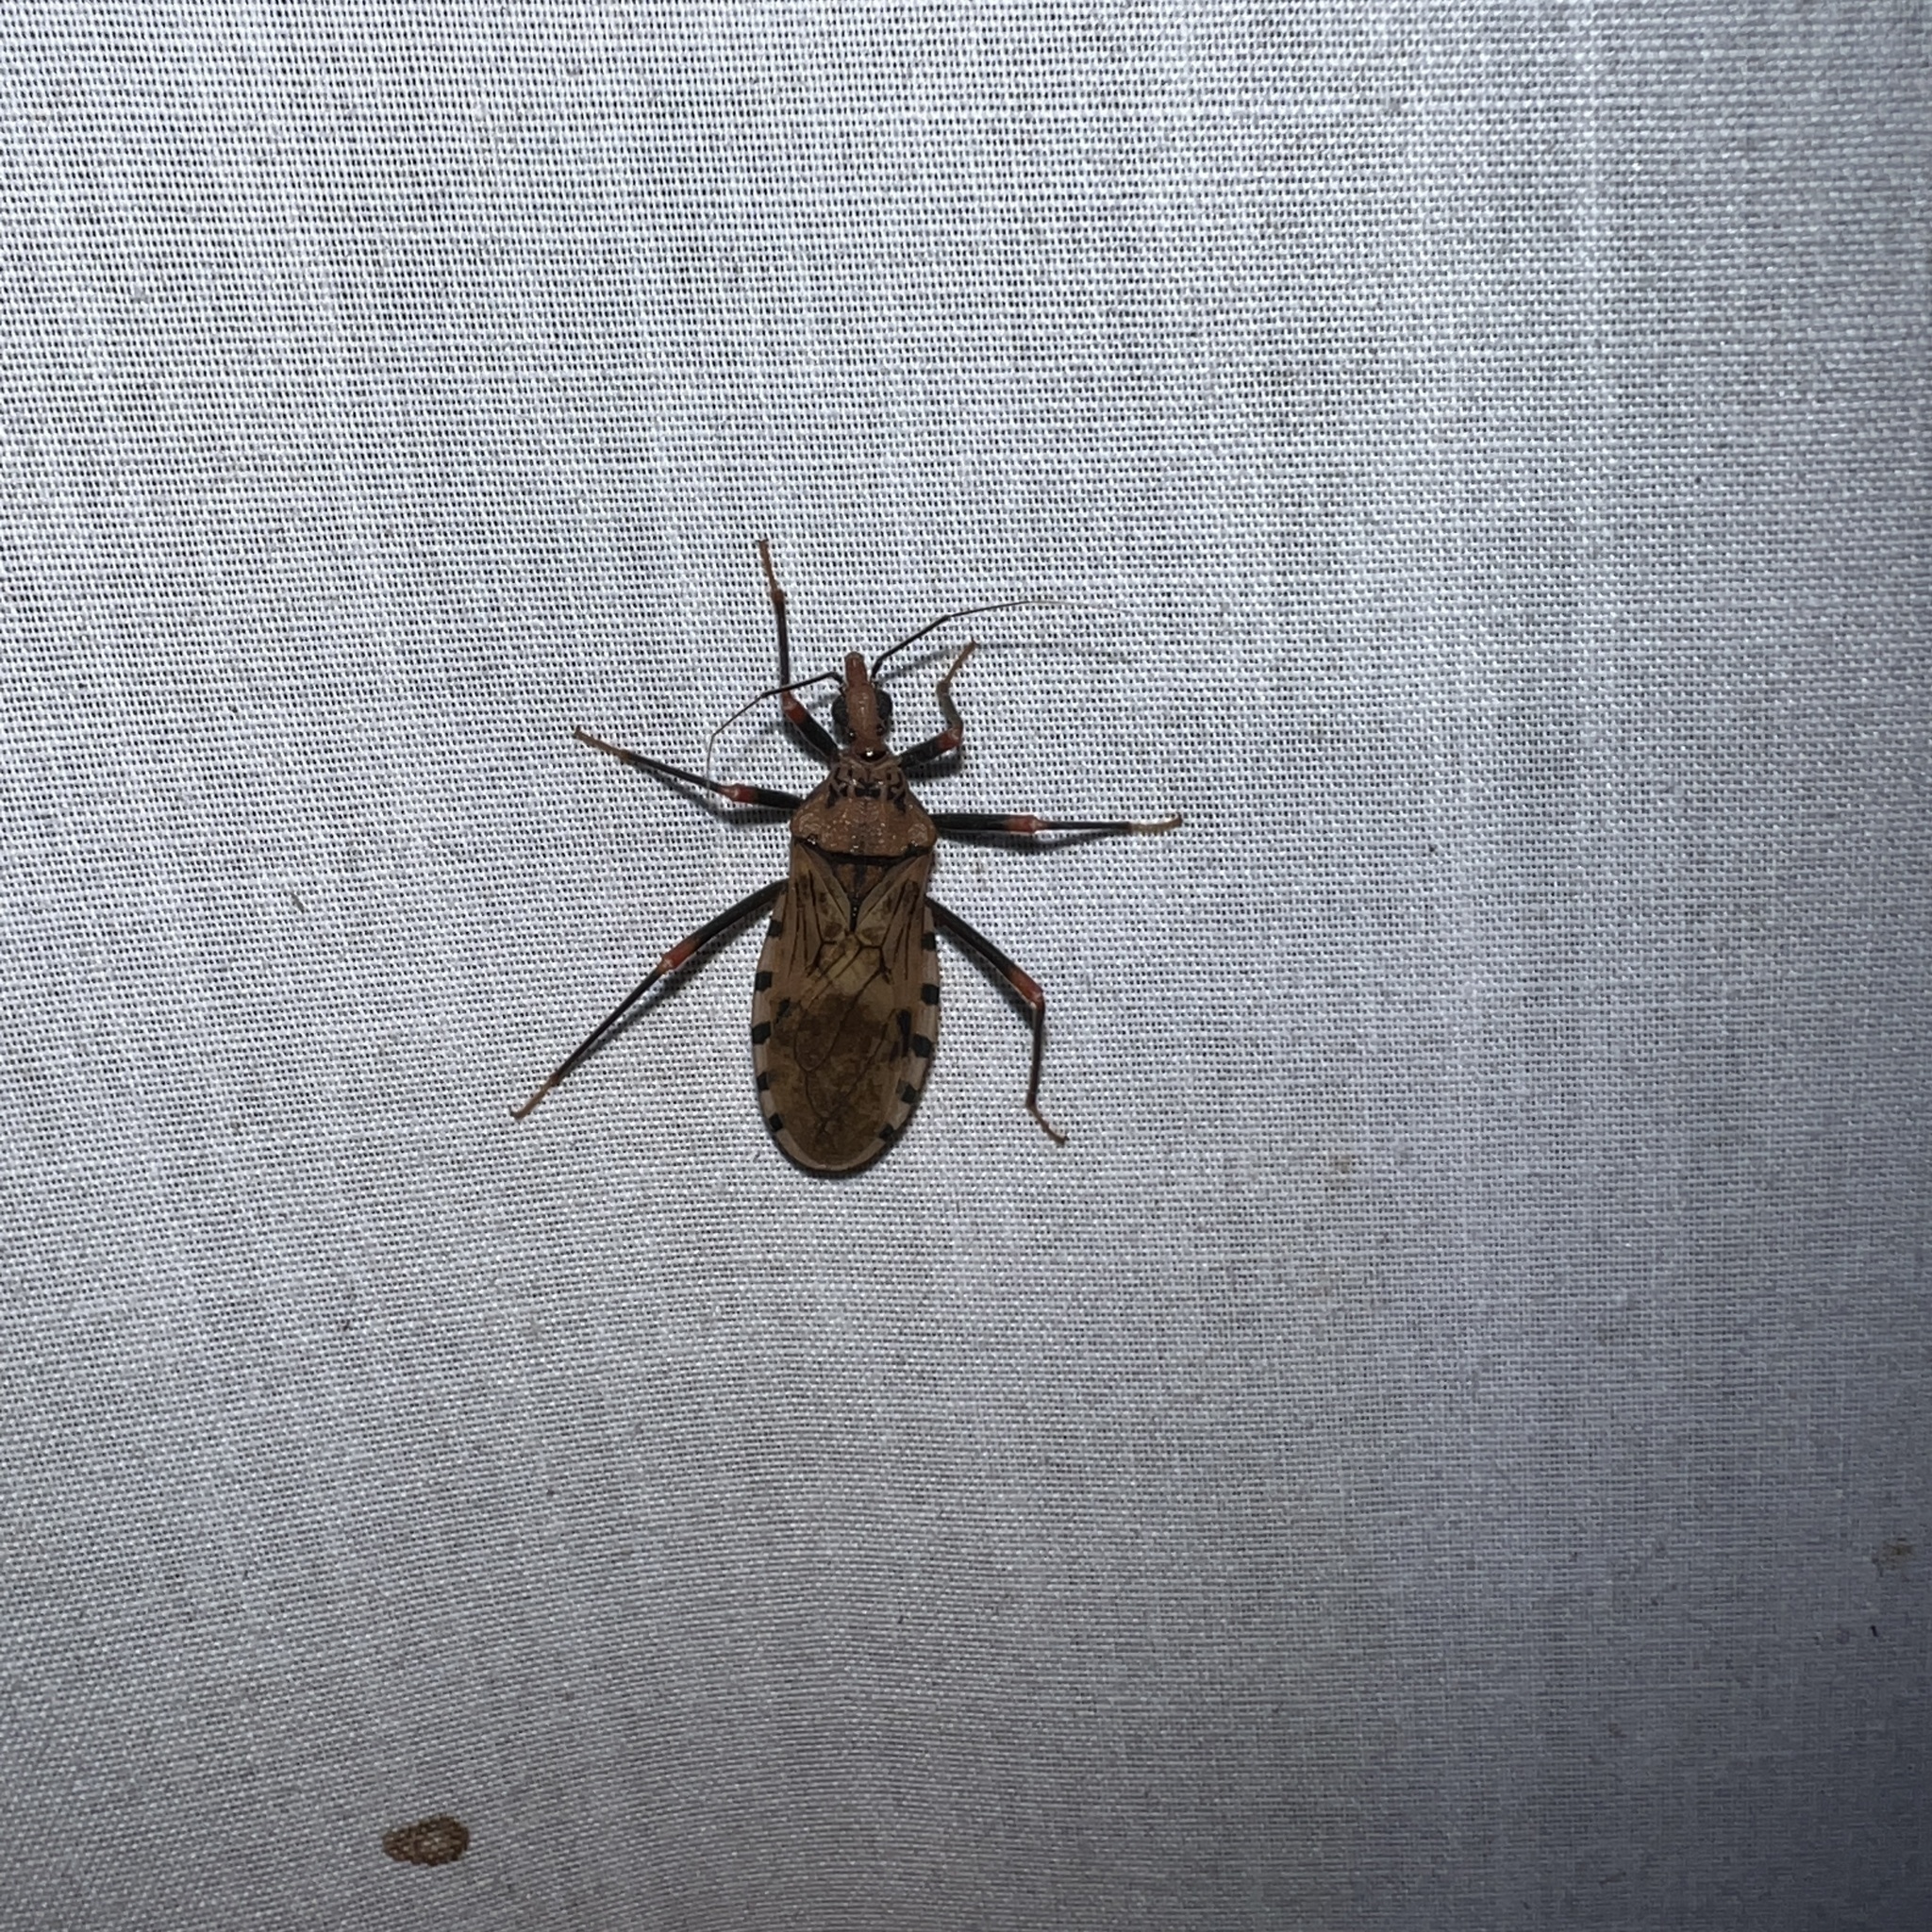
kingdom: Animalia
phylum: Arthropoda
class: Insecta
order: Hemiptera
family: Reduviidae
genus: Panstrongylus
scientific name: Panstrongylus geniculatus
